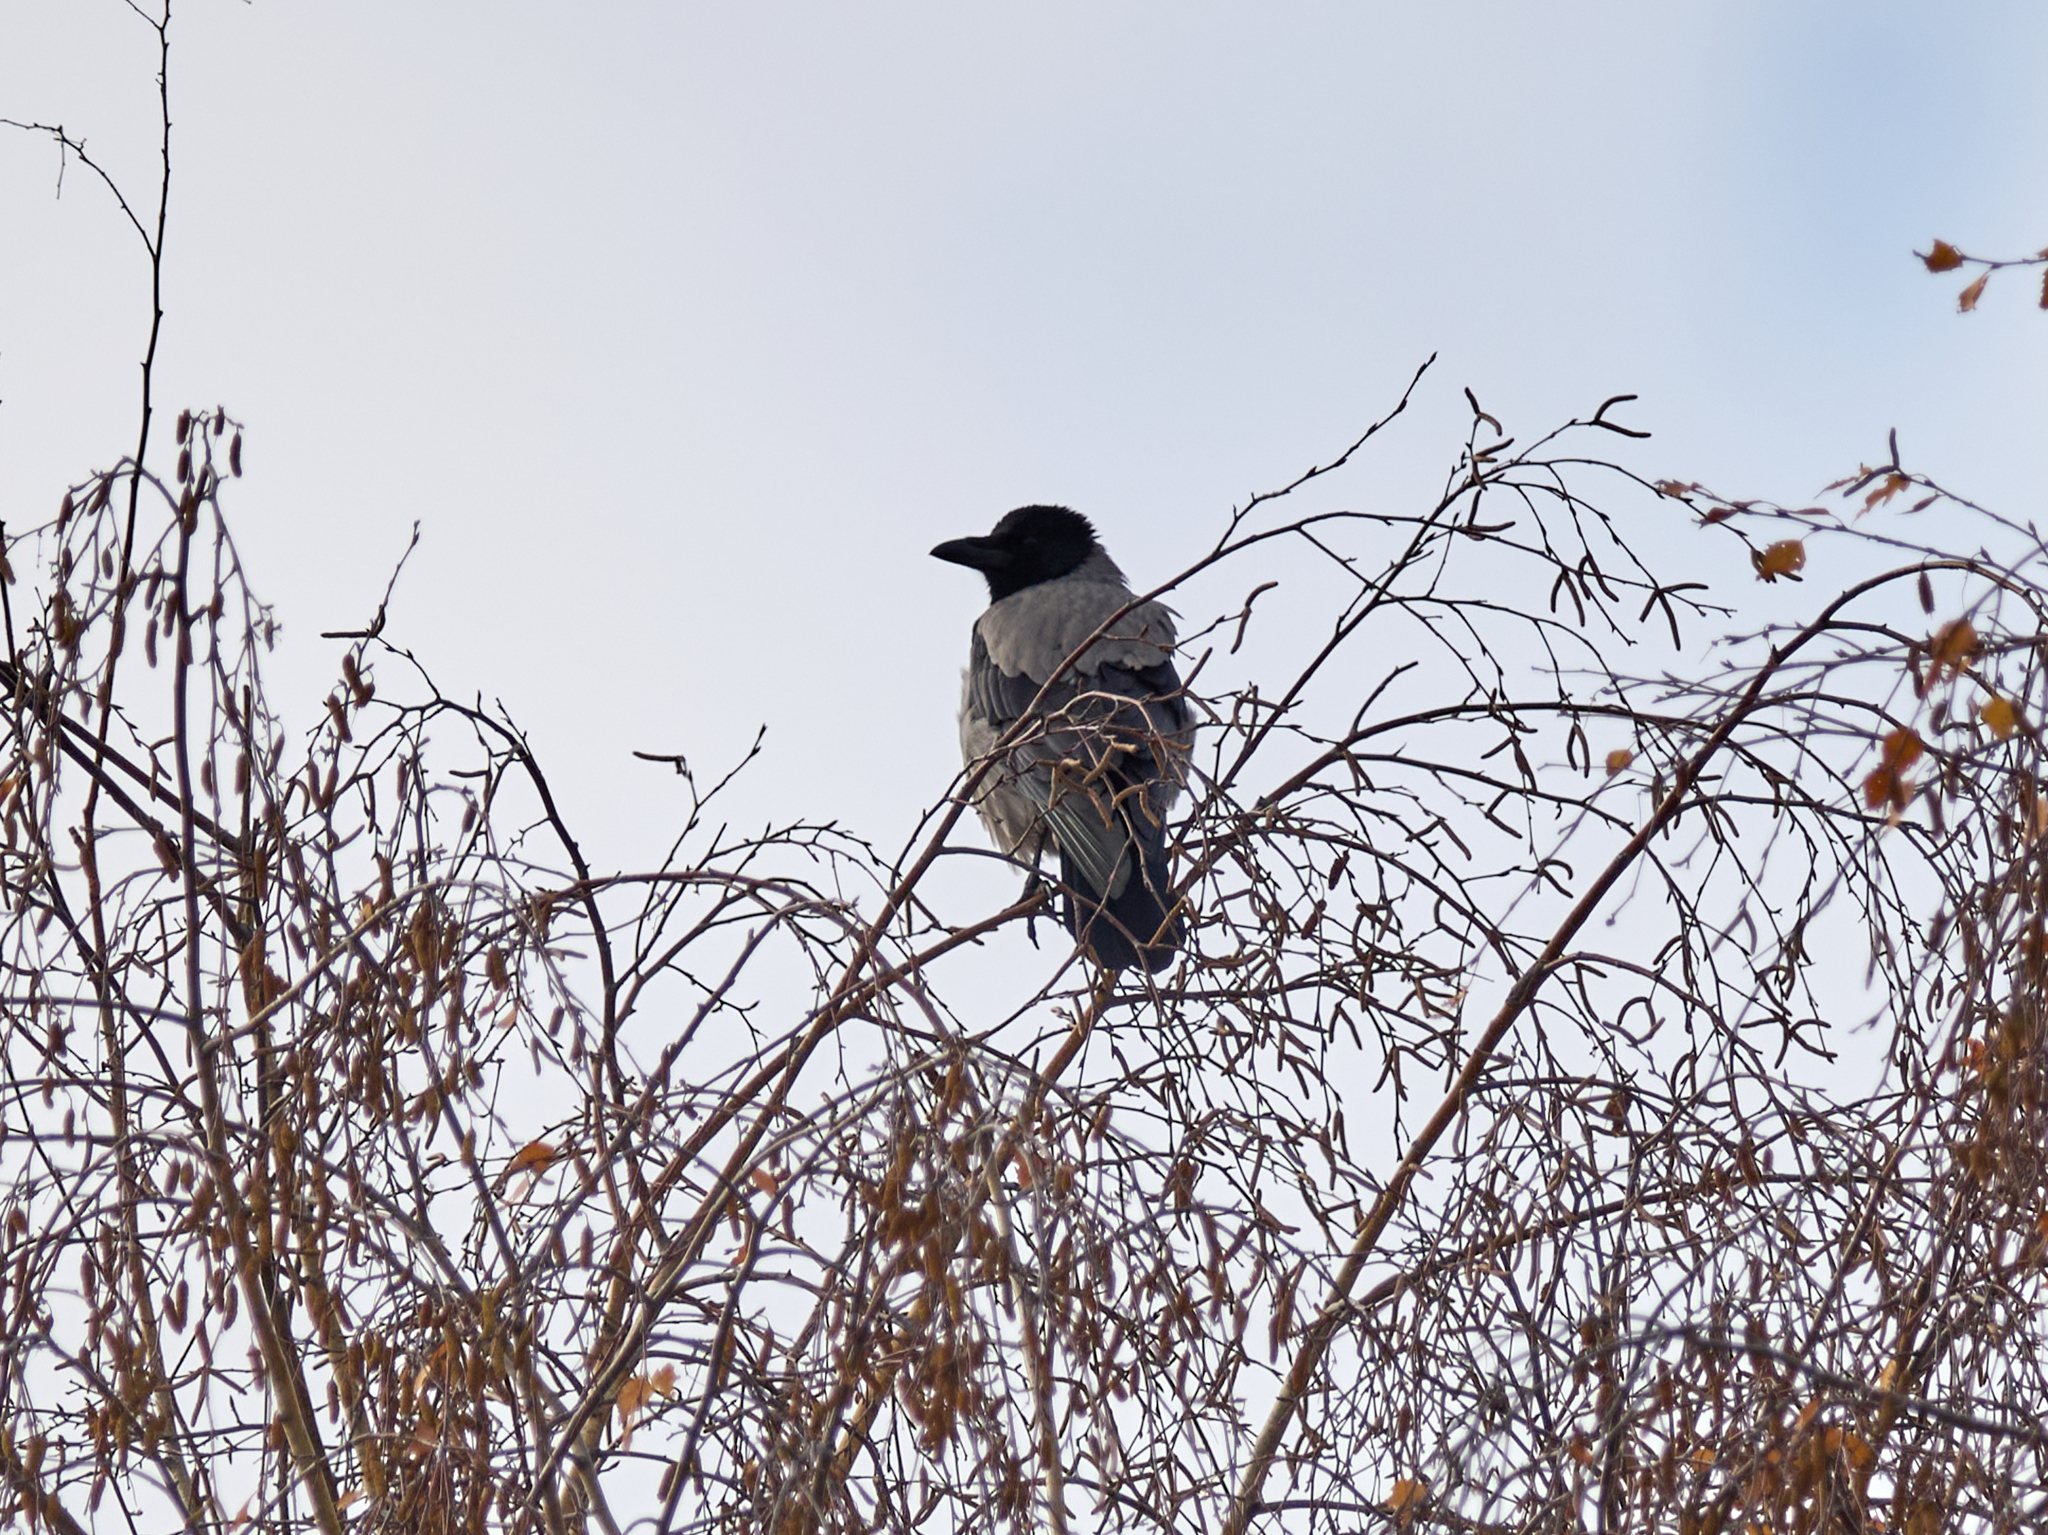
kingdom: Animalia
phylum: Chordata
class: Aves
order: Passeriformes
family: Corvidae
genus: Corvus
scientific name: Corvus cornix
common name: Hooded crow
